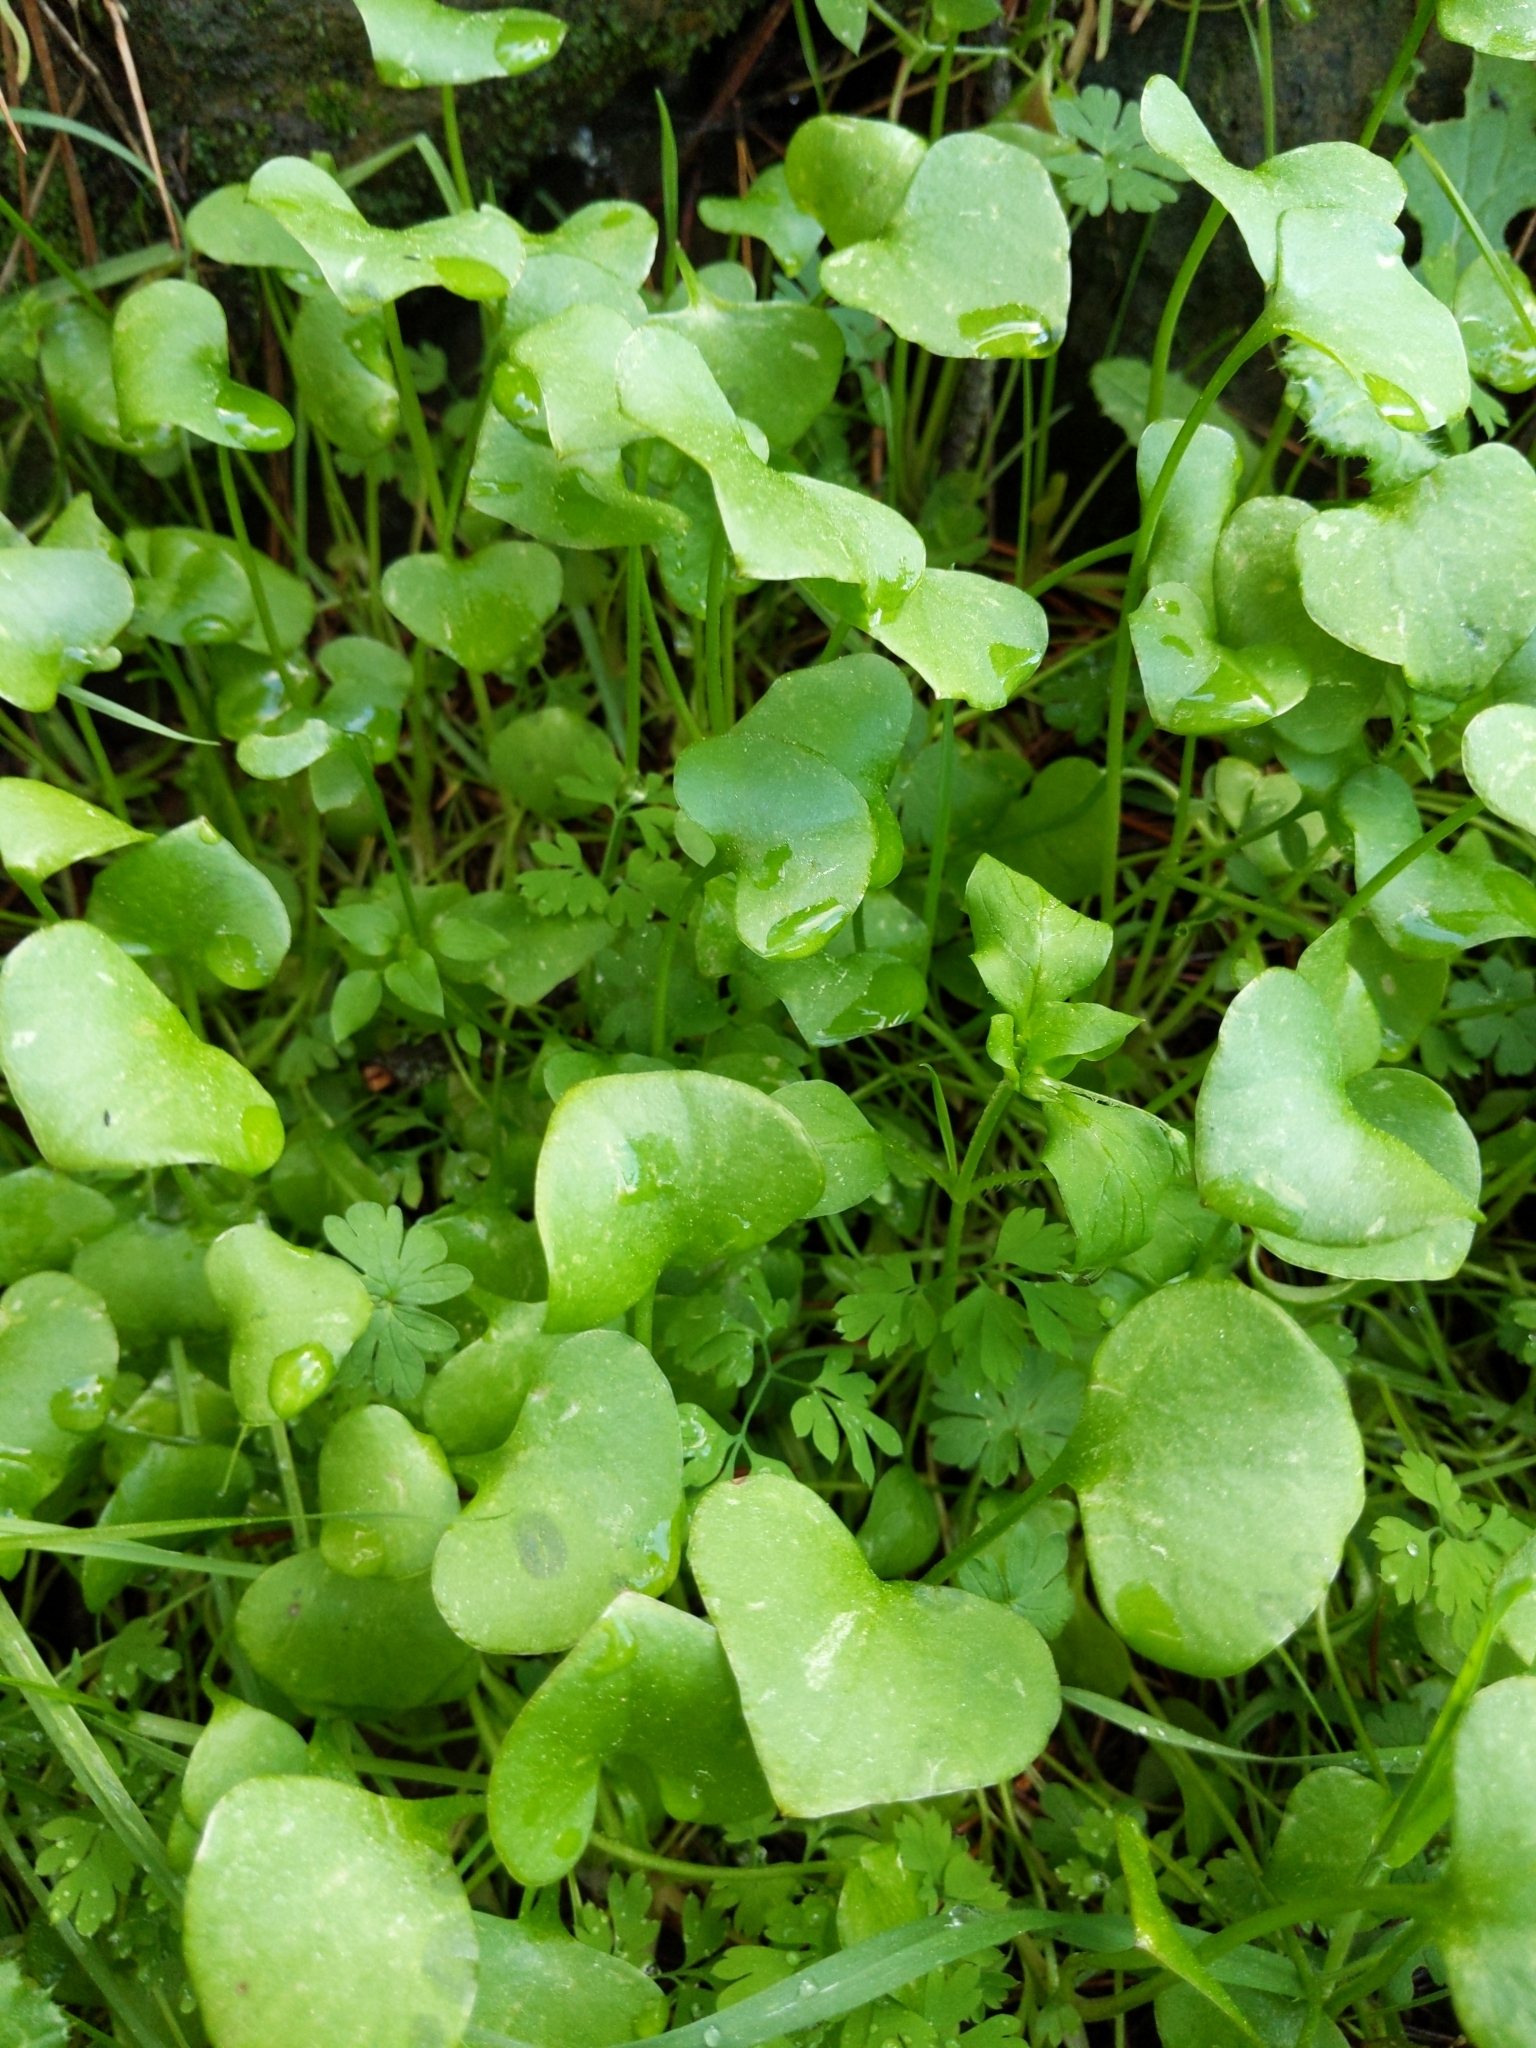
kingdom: Plantae
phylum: Tracheophyta
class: Magnoliopsida
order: Caryophyllales
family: Montiaceae
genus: Claytonia
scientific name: Claytonia perfoliata
